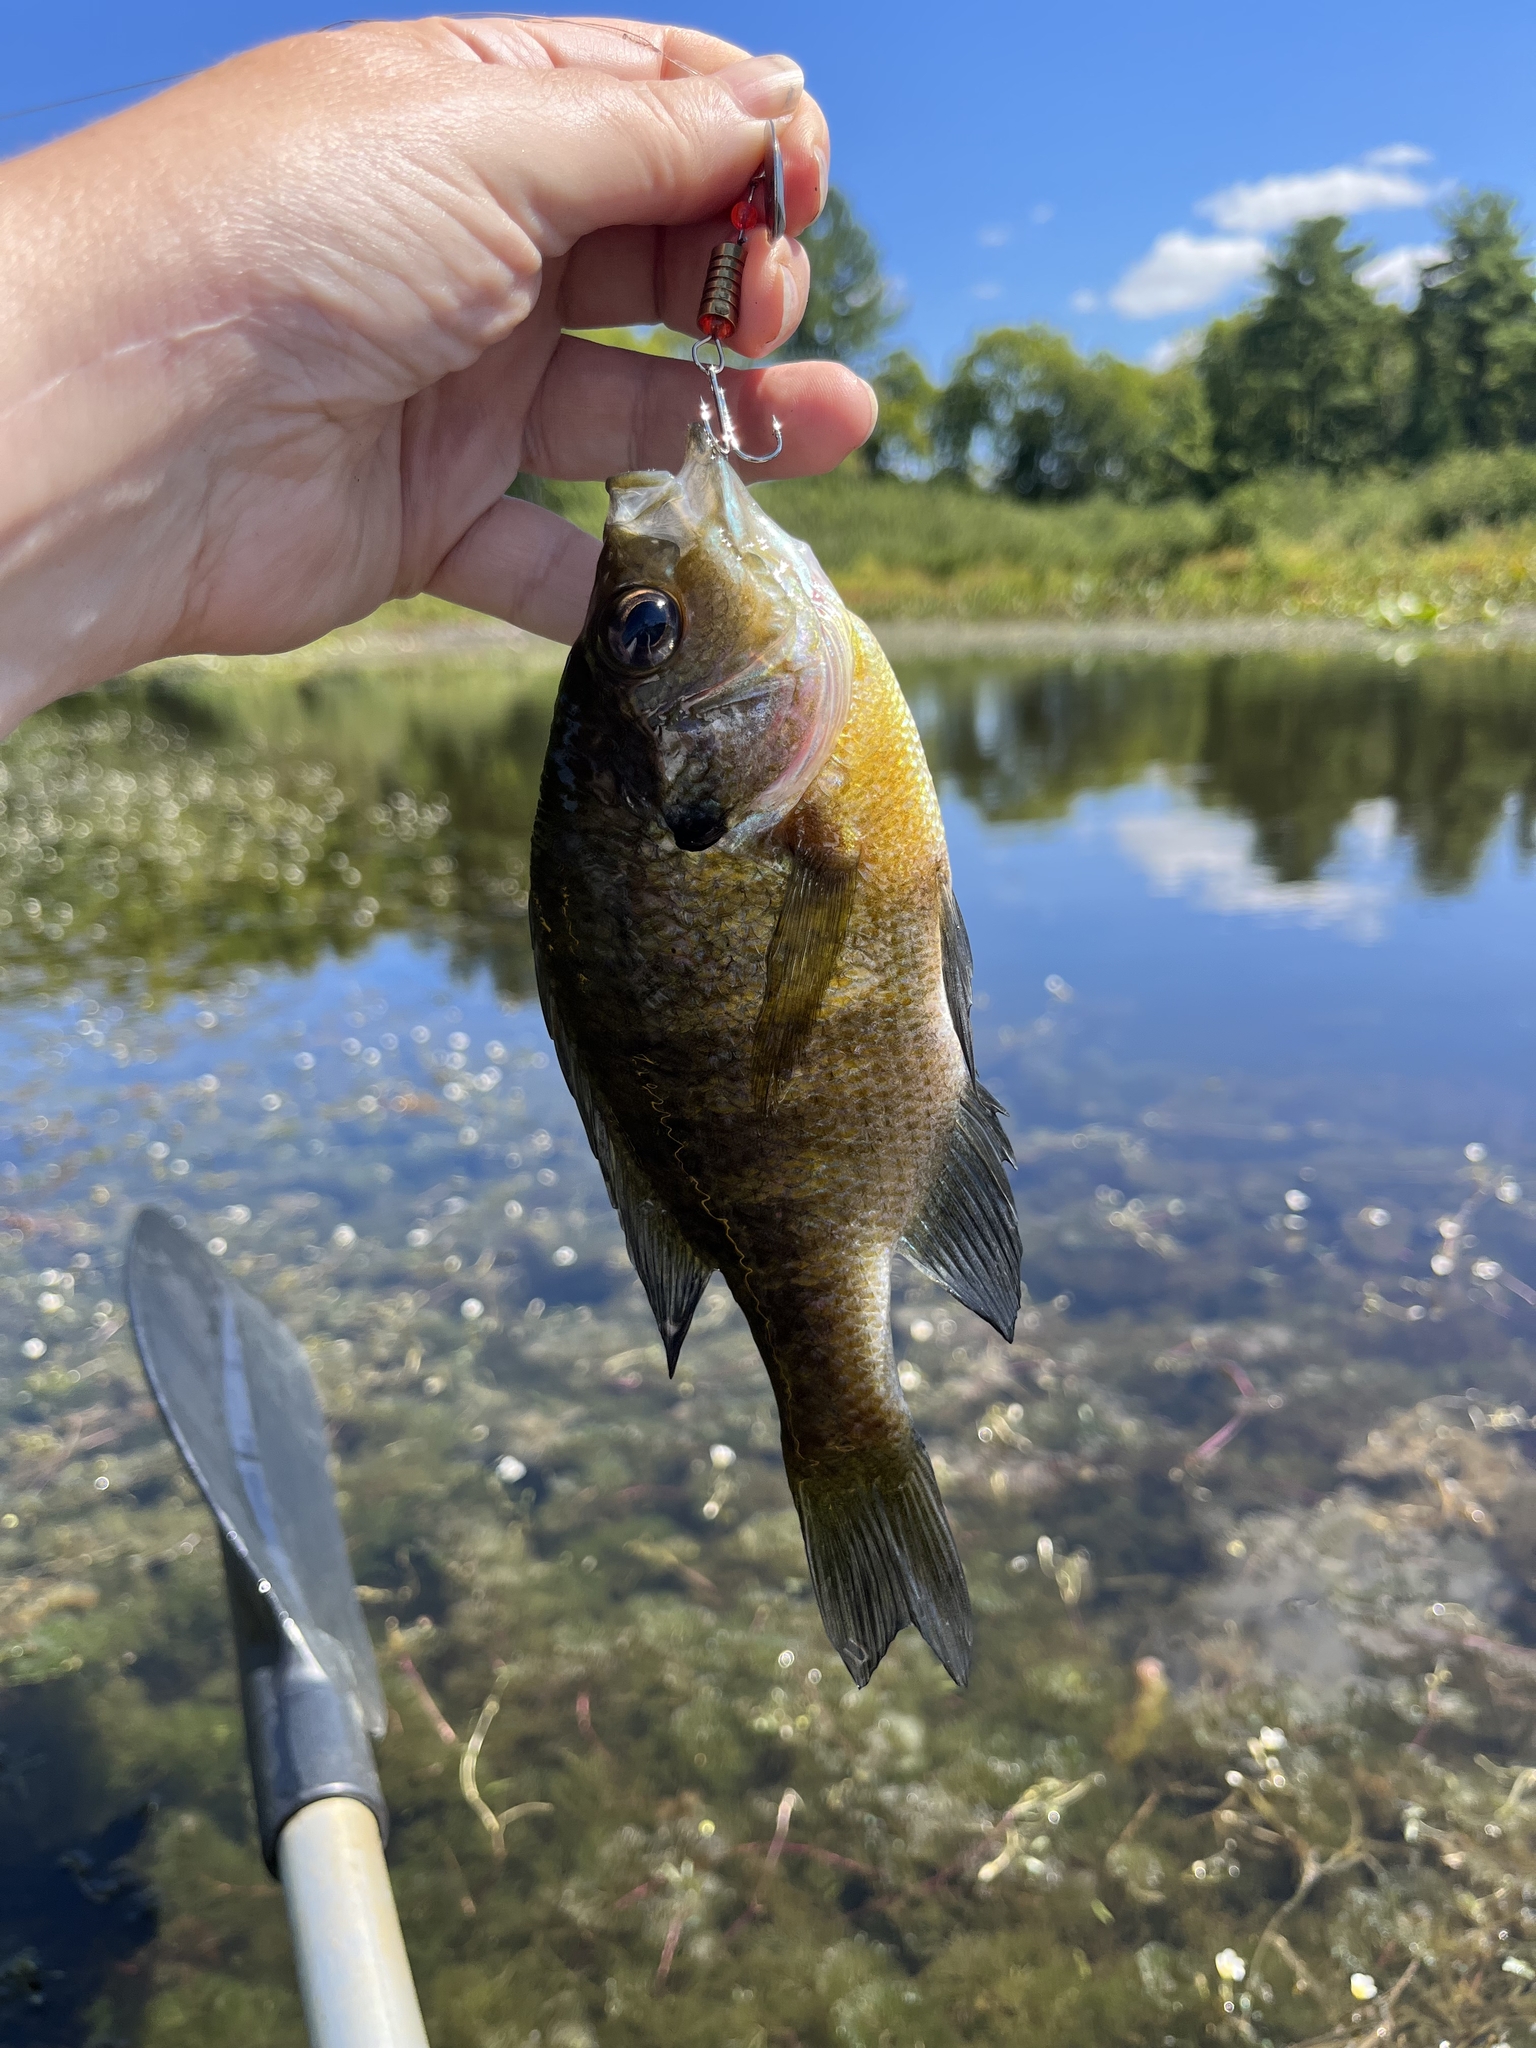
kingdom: Animalia
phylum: Chordata
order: Perciformes
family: Centrarchidae
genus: Lepomis
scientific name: Lepomis macrochirus
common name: Bluegill
